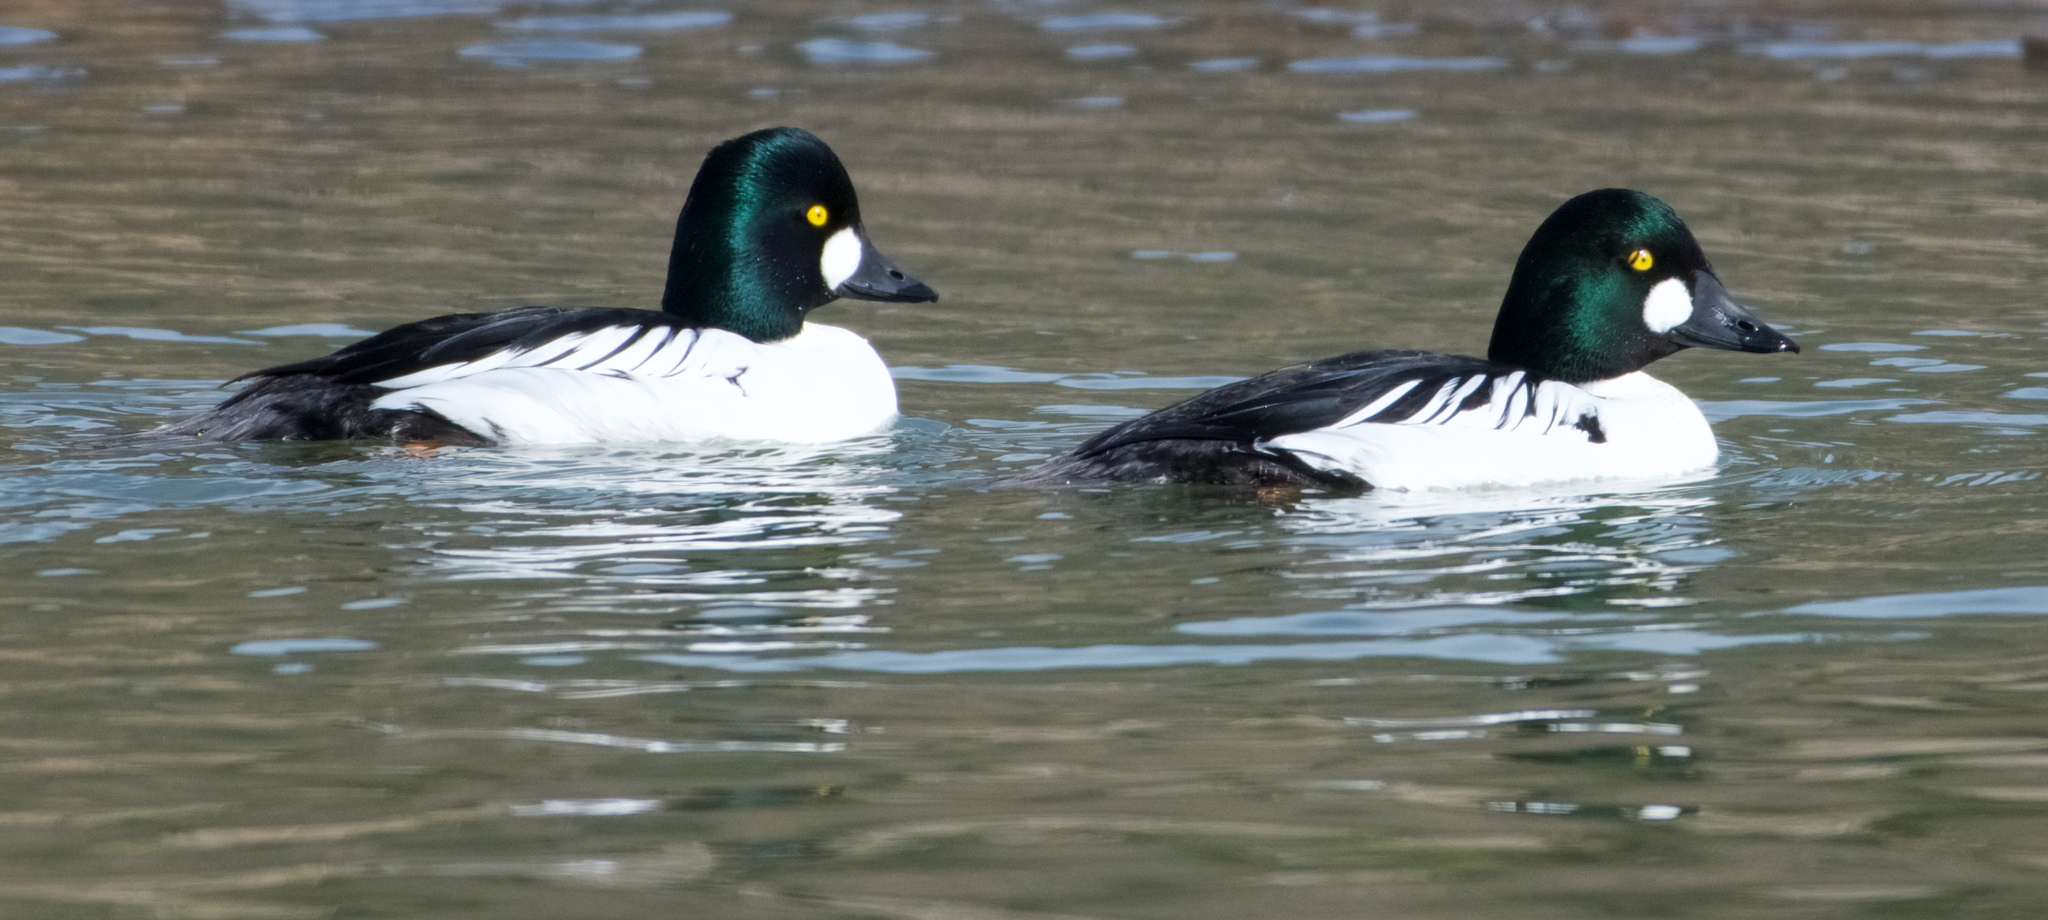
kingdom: Animalia
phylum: Chordata
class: Aves
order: Anseriformes
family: Anatidae
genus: Bucephala
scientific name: Bucephala clangula
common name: Common goldeneye
